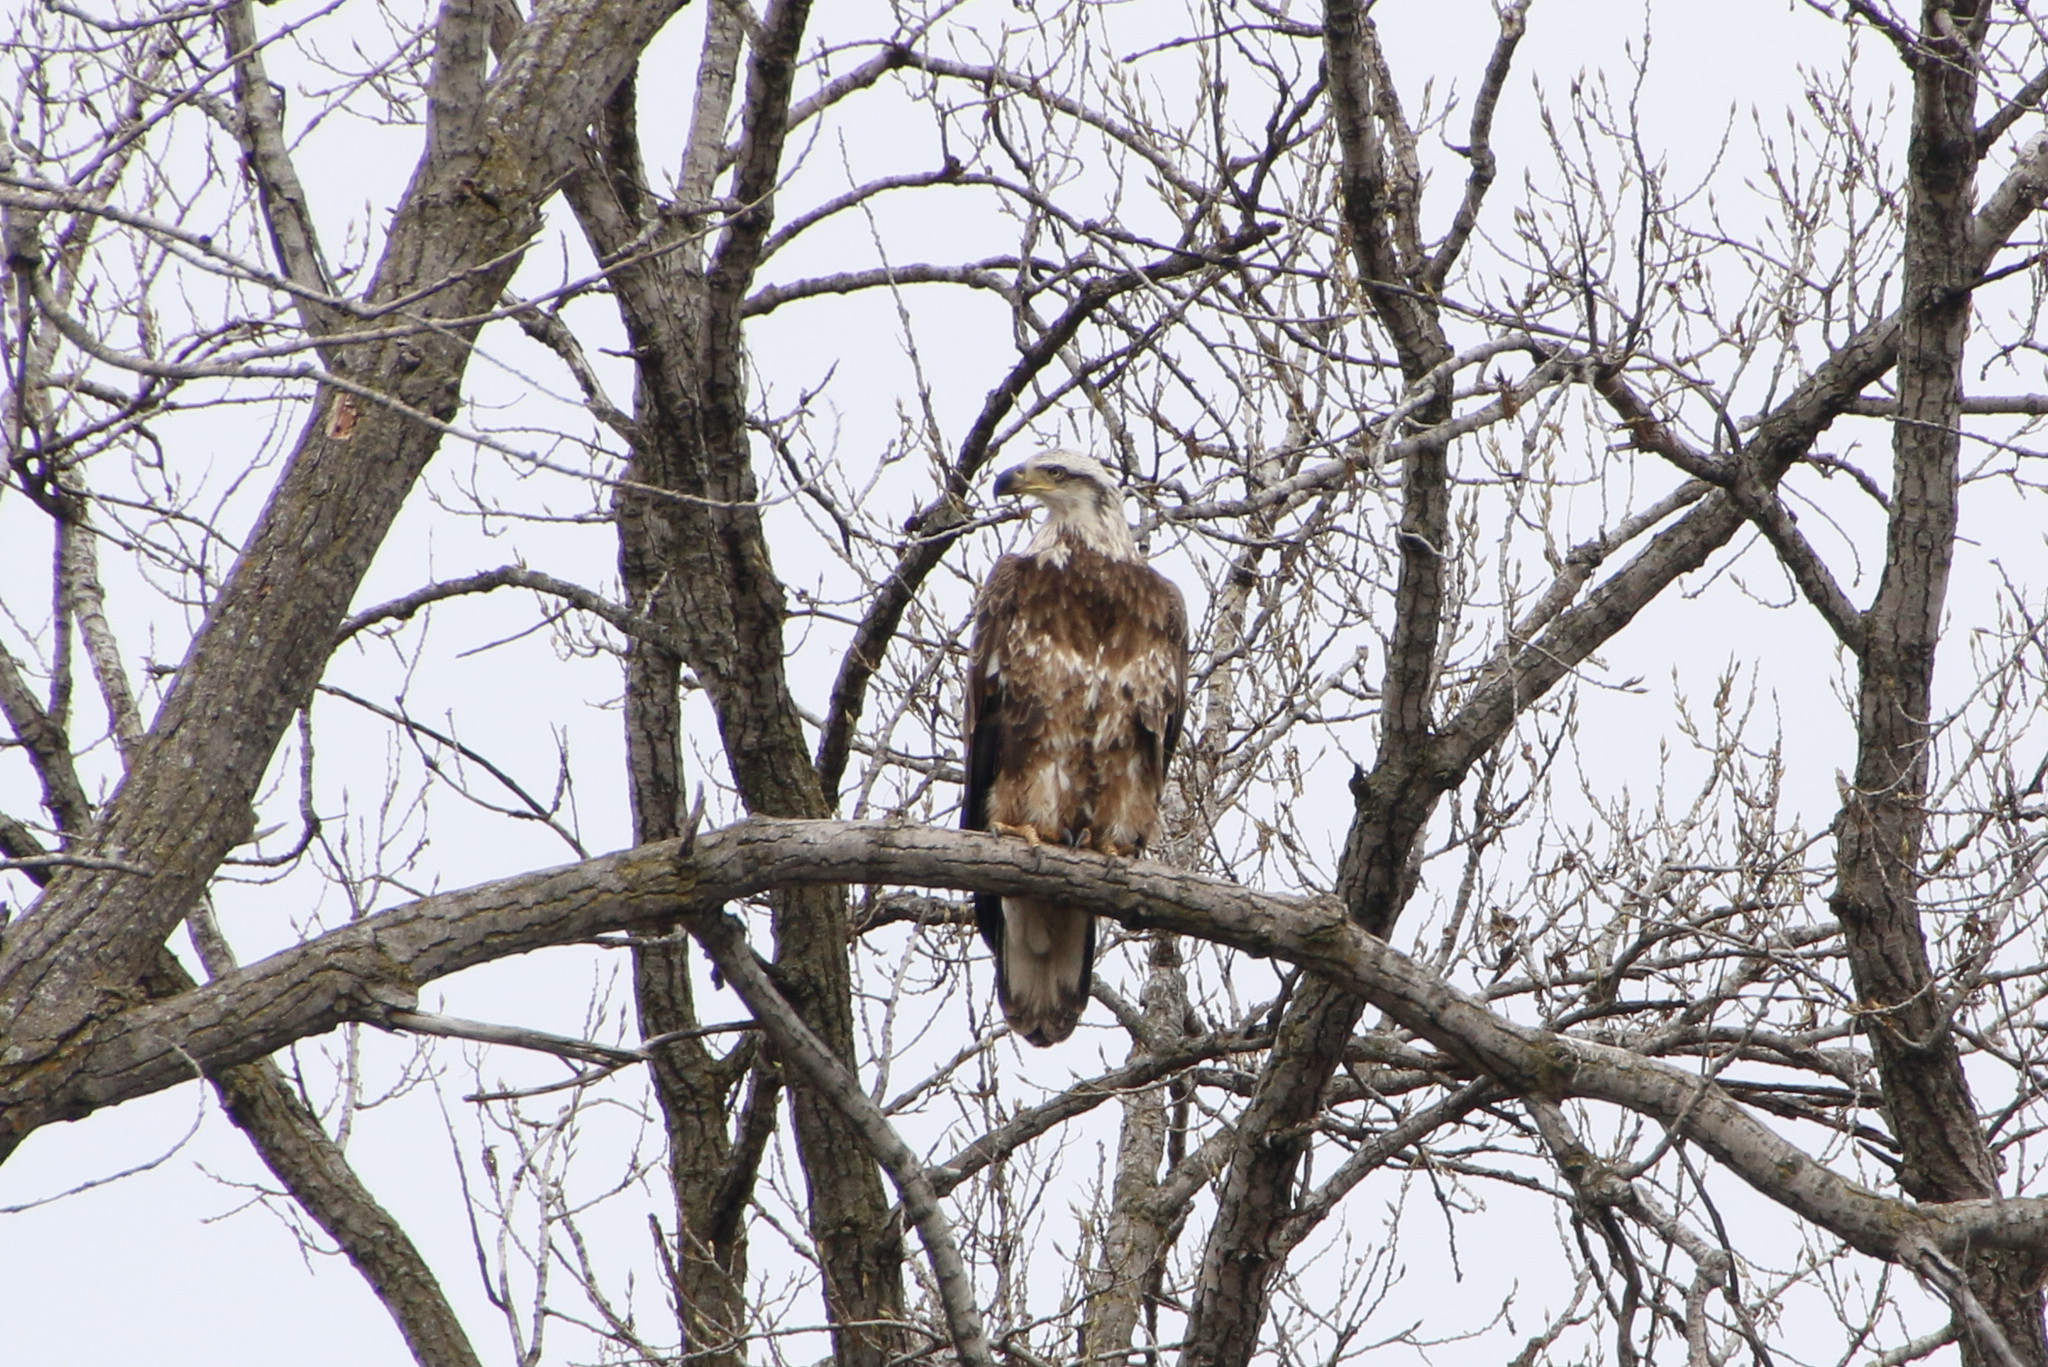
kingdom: Animalia
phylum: Chordata
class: Aves
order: Accipitriformes
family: Accipitridae
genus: Haliaeetus
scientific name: Haliaeetus leucocephalus
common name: Bald eagle
